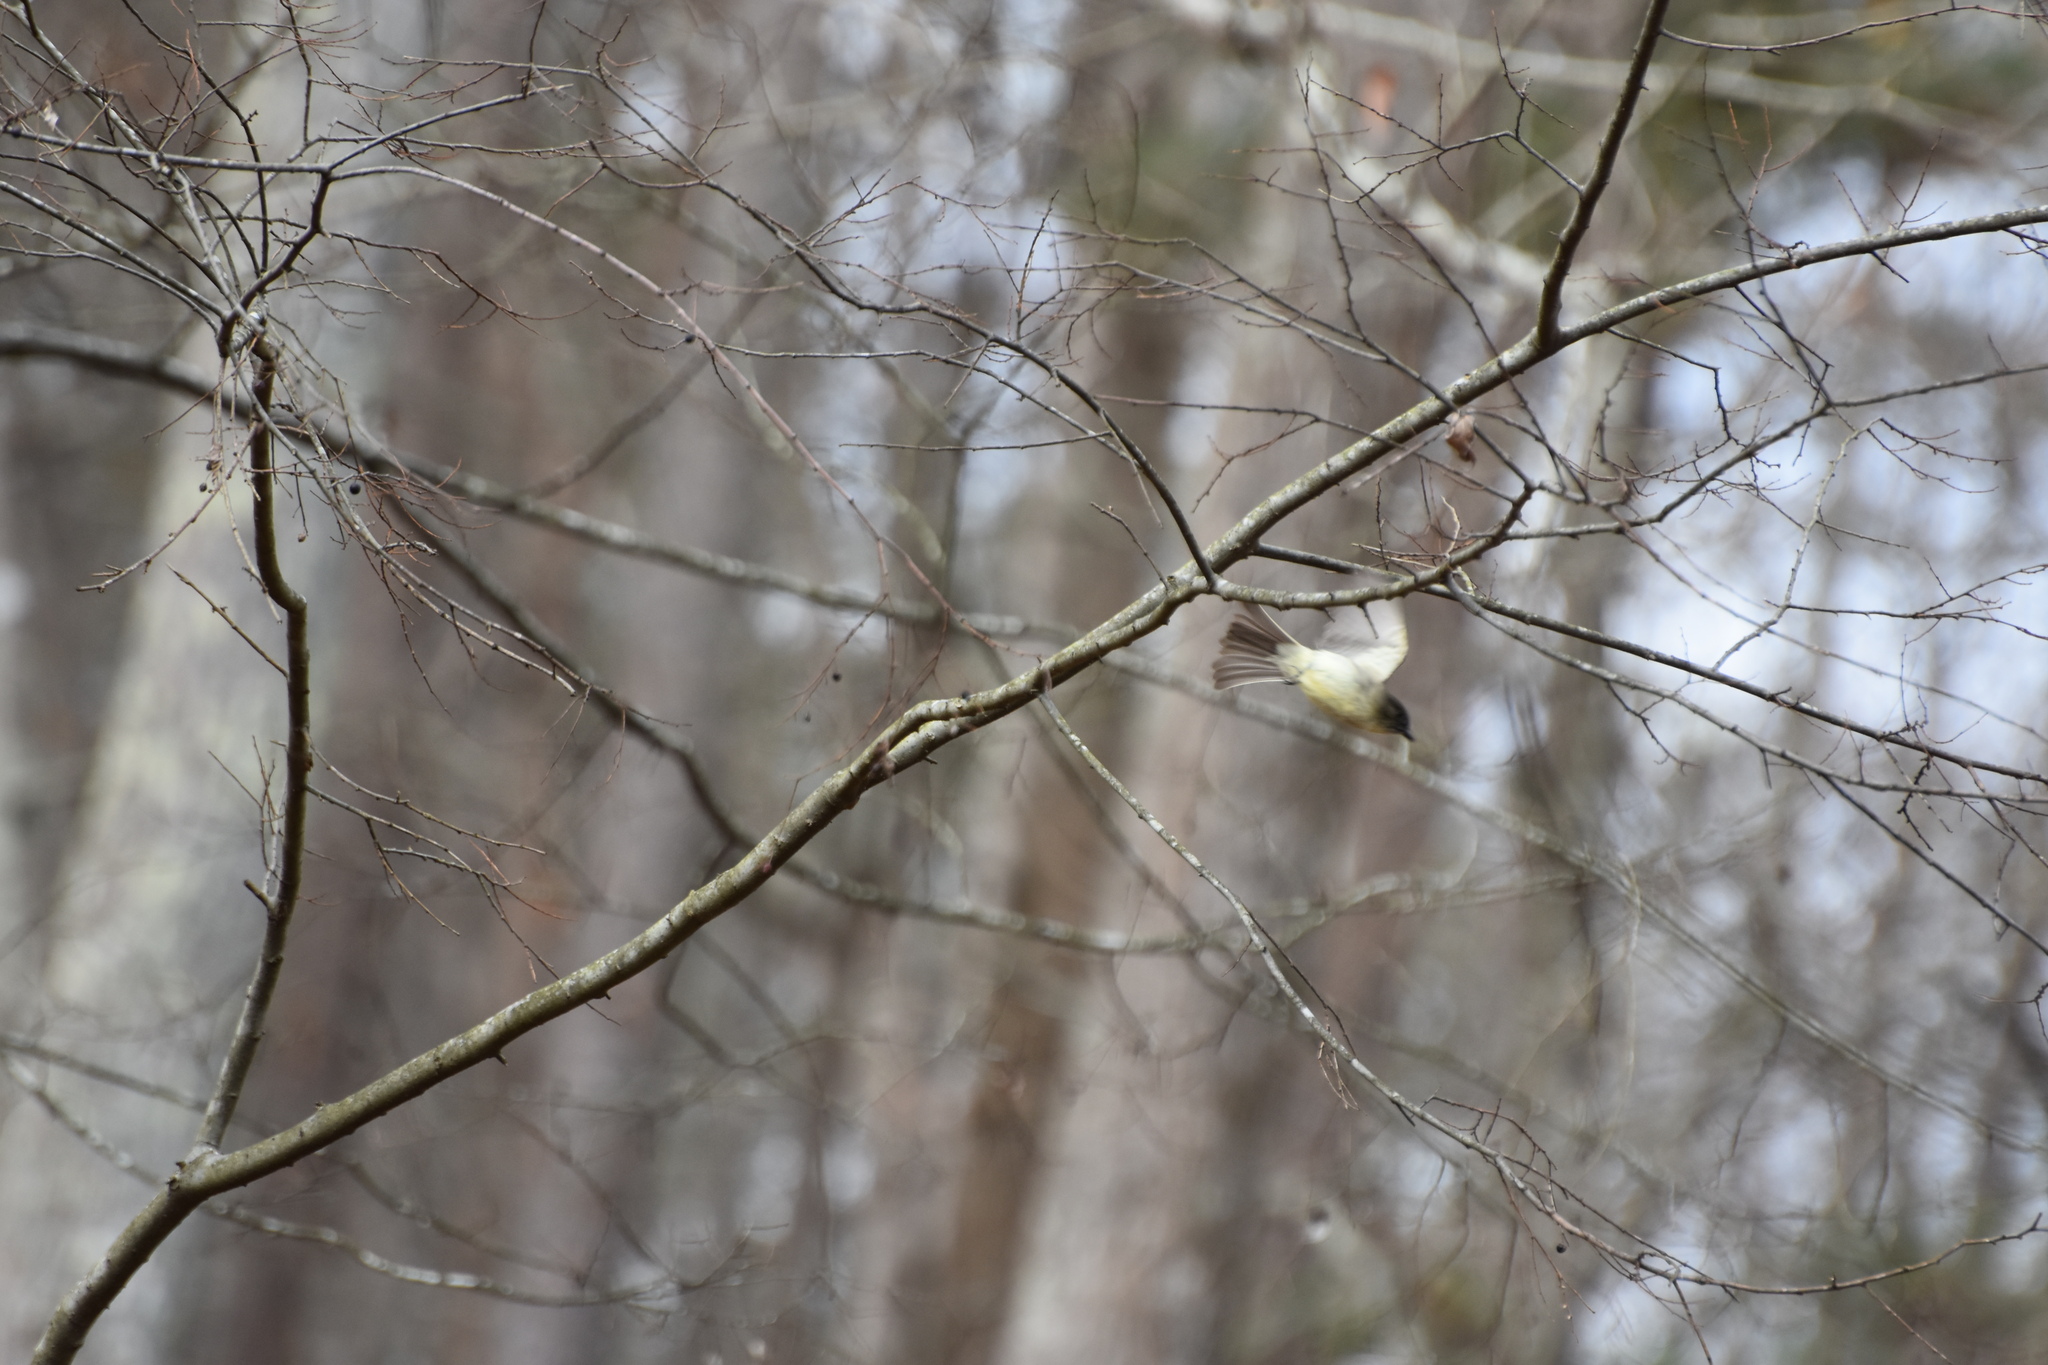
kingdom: Animalia
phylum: Chordata
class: Aves
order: Passeriformes
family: Tyrannidae
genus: Sayornis
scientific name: Sayornis phoebe
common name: Eastern phoebe
